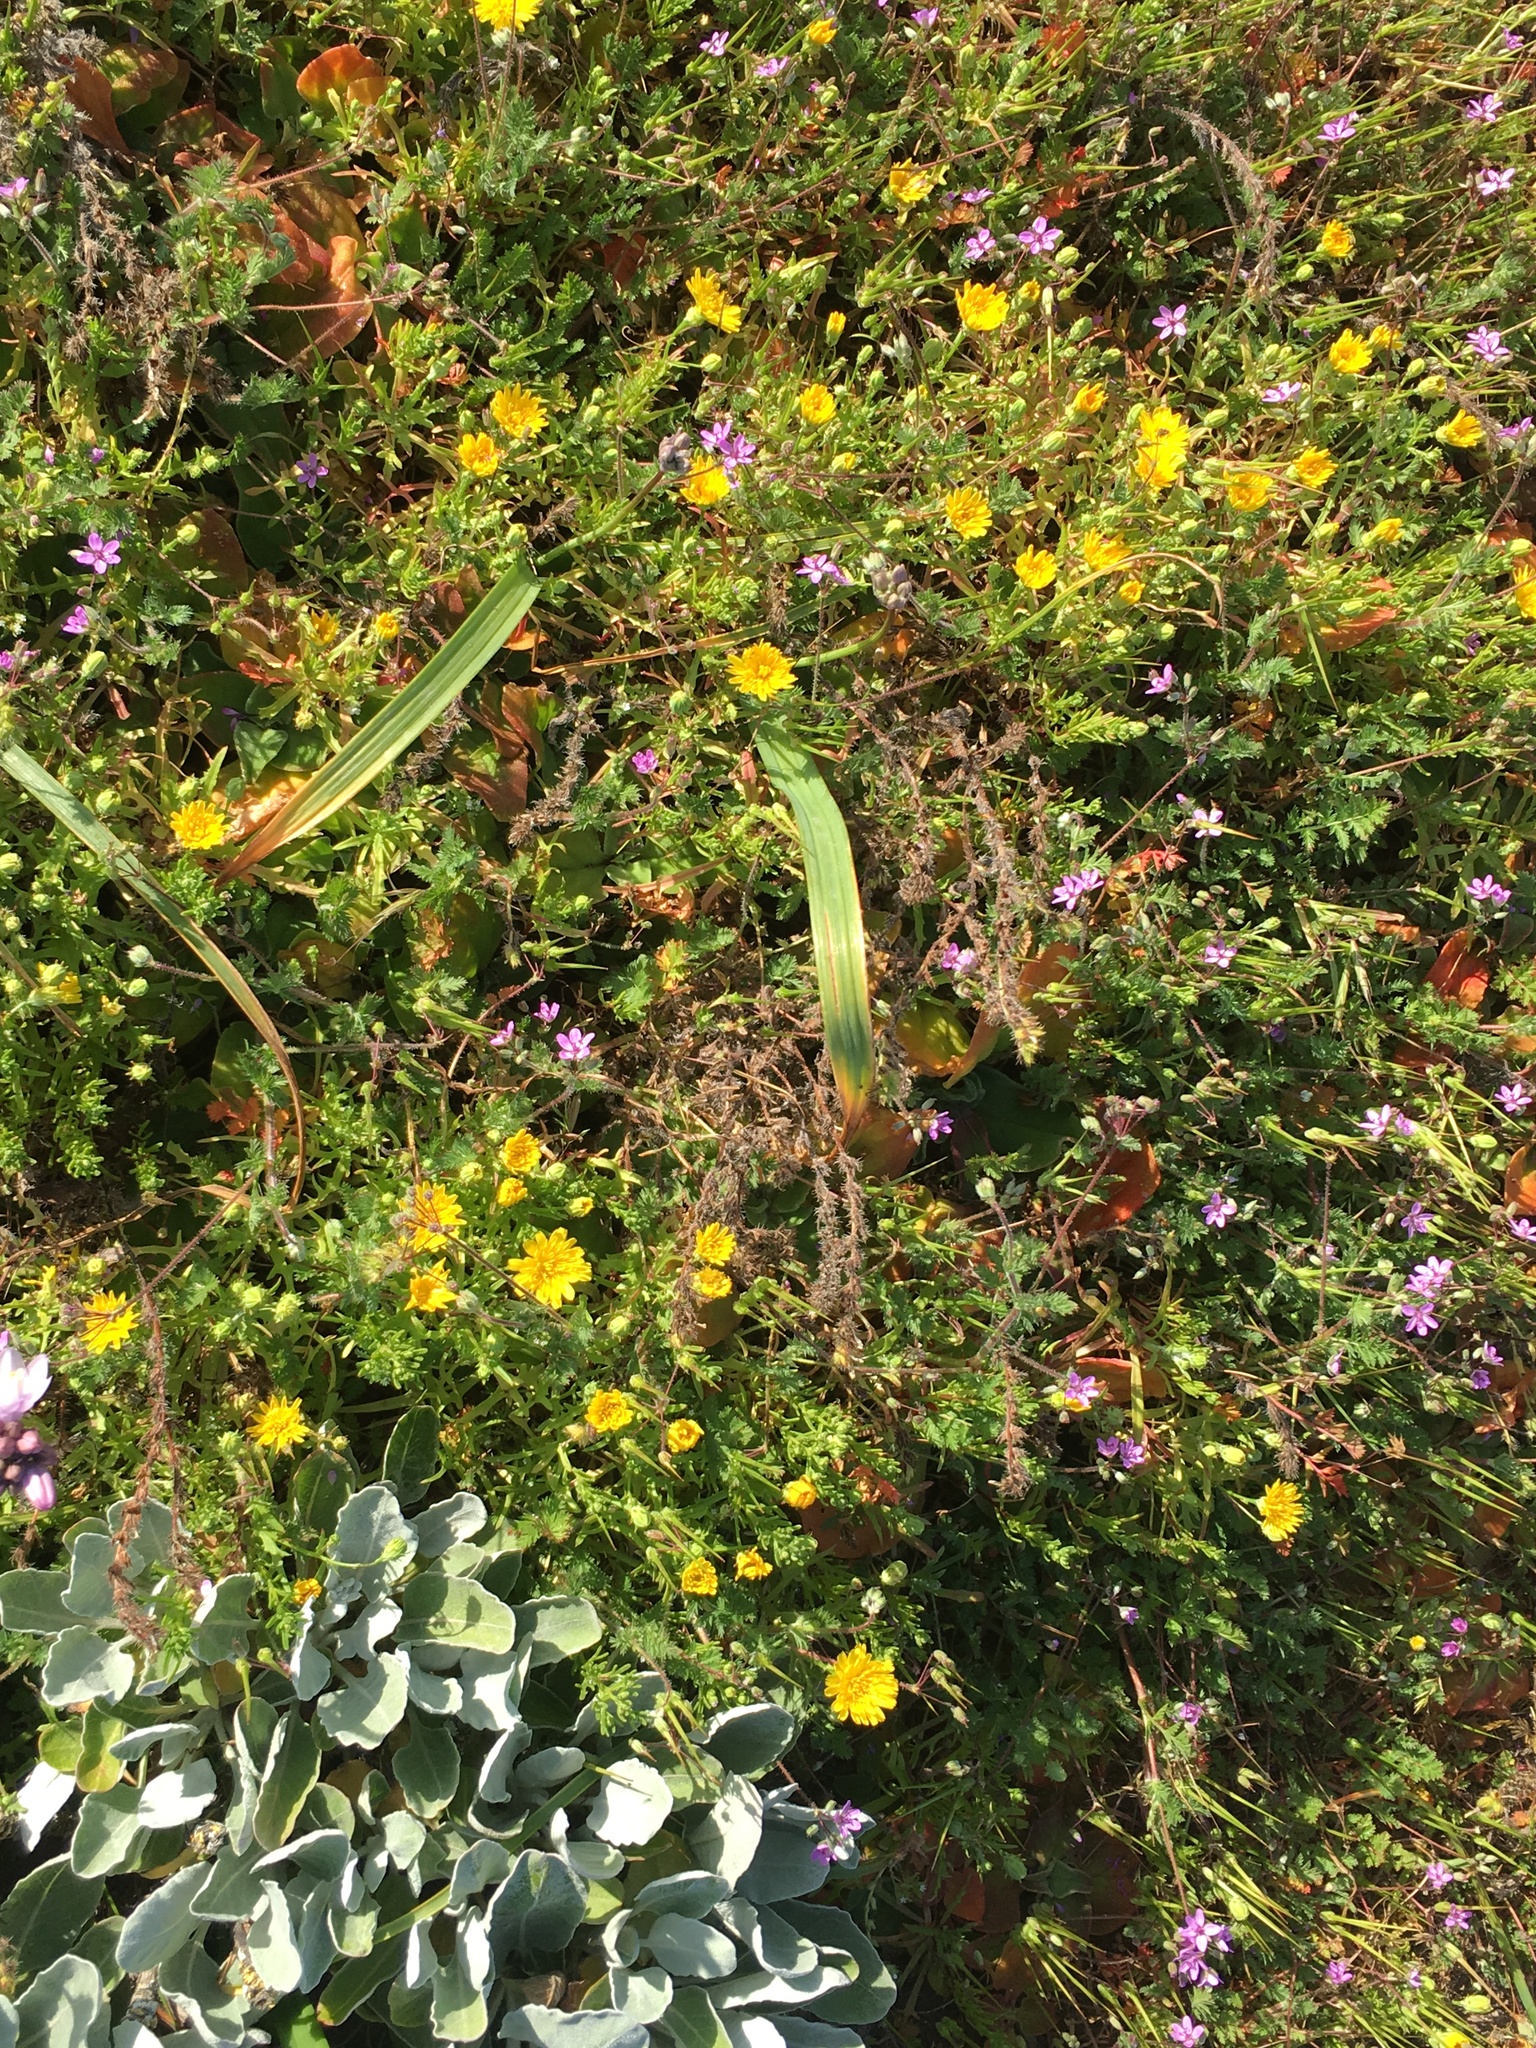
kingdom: Plantae
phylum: Tracheophyta
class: Magnoliopsida
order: Asterales
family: Asteraceae
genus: Malacothrix
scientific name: Malacothrix foliosa
